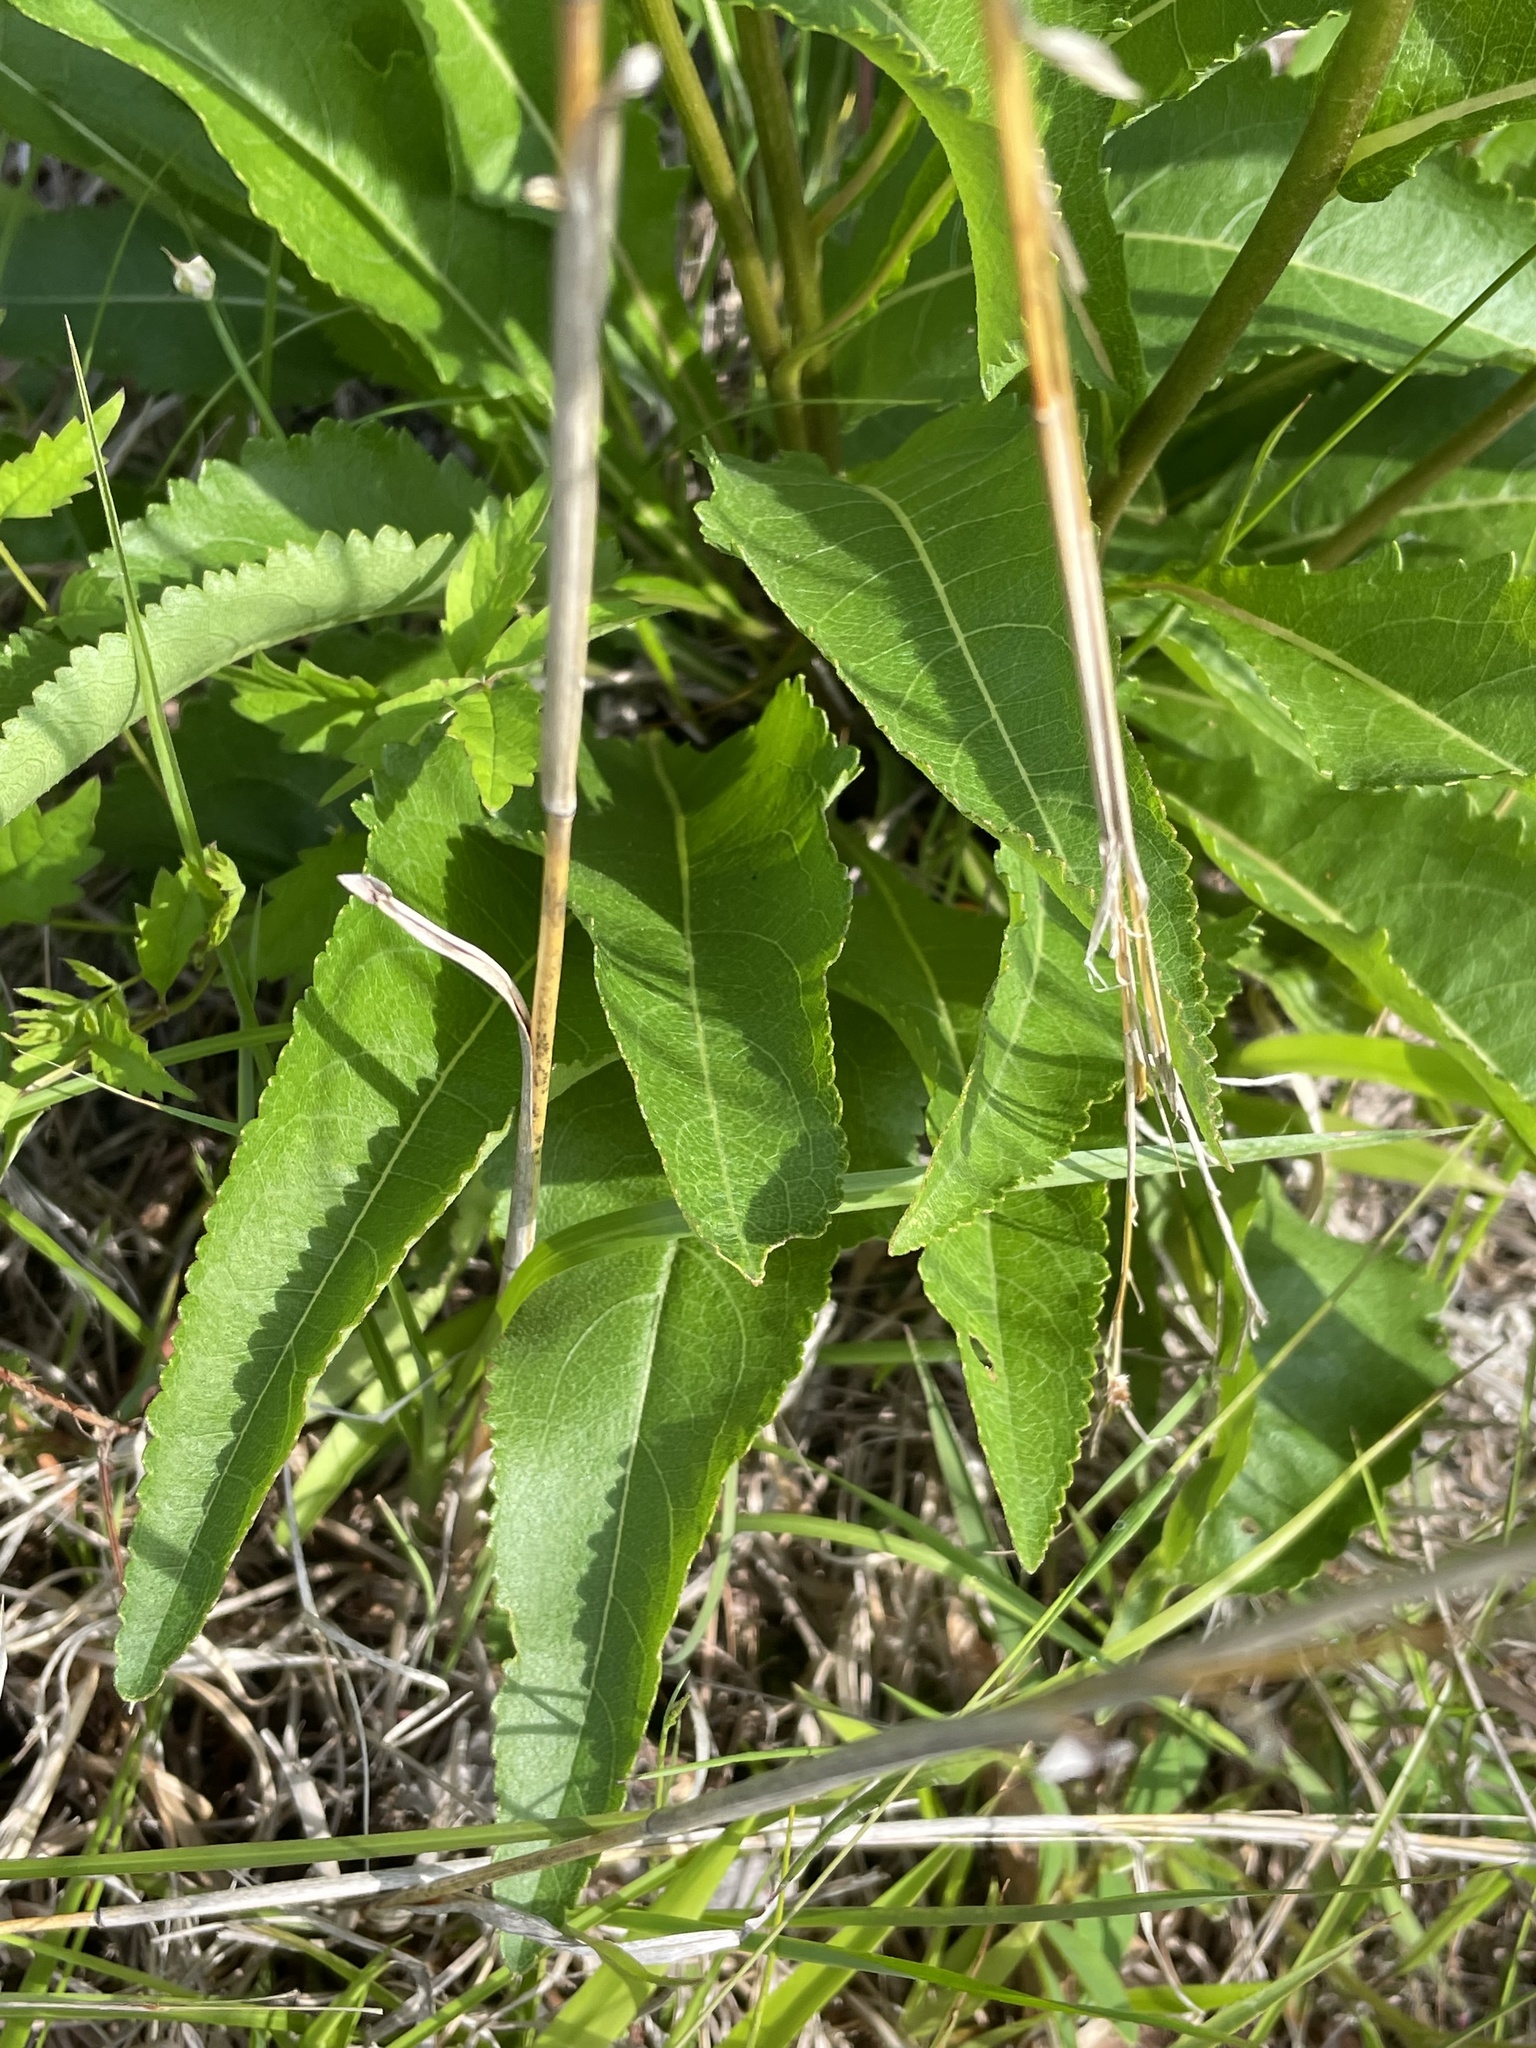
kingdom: Plantae
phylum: Tracheophyta
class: Magnoliopsida
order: Asterales
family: Asteraceae
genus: Parthenium
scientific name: Parthenium integrifolium
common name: American feverfew
